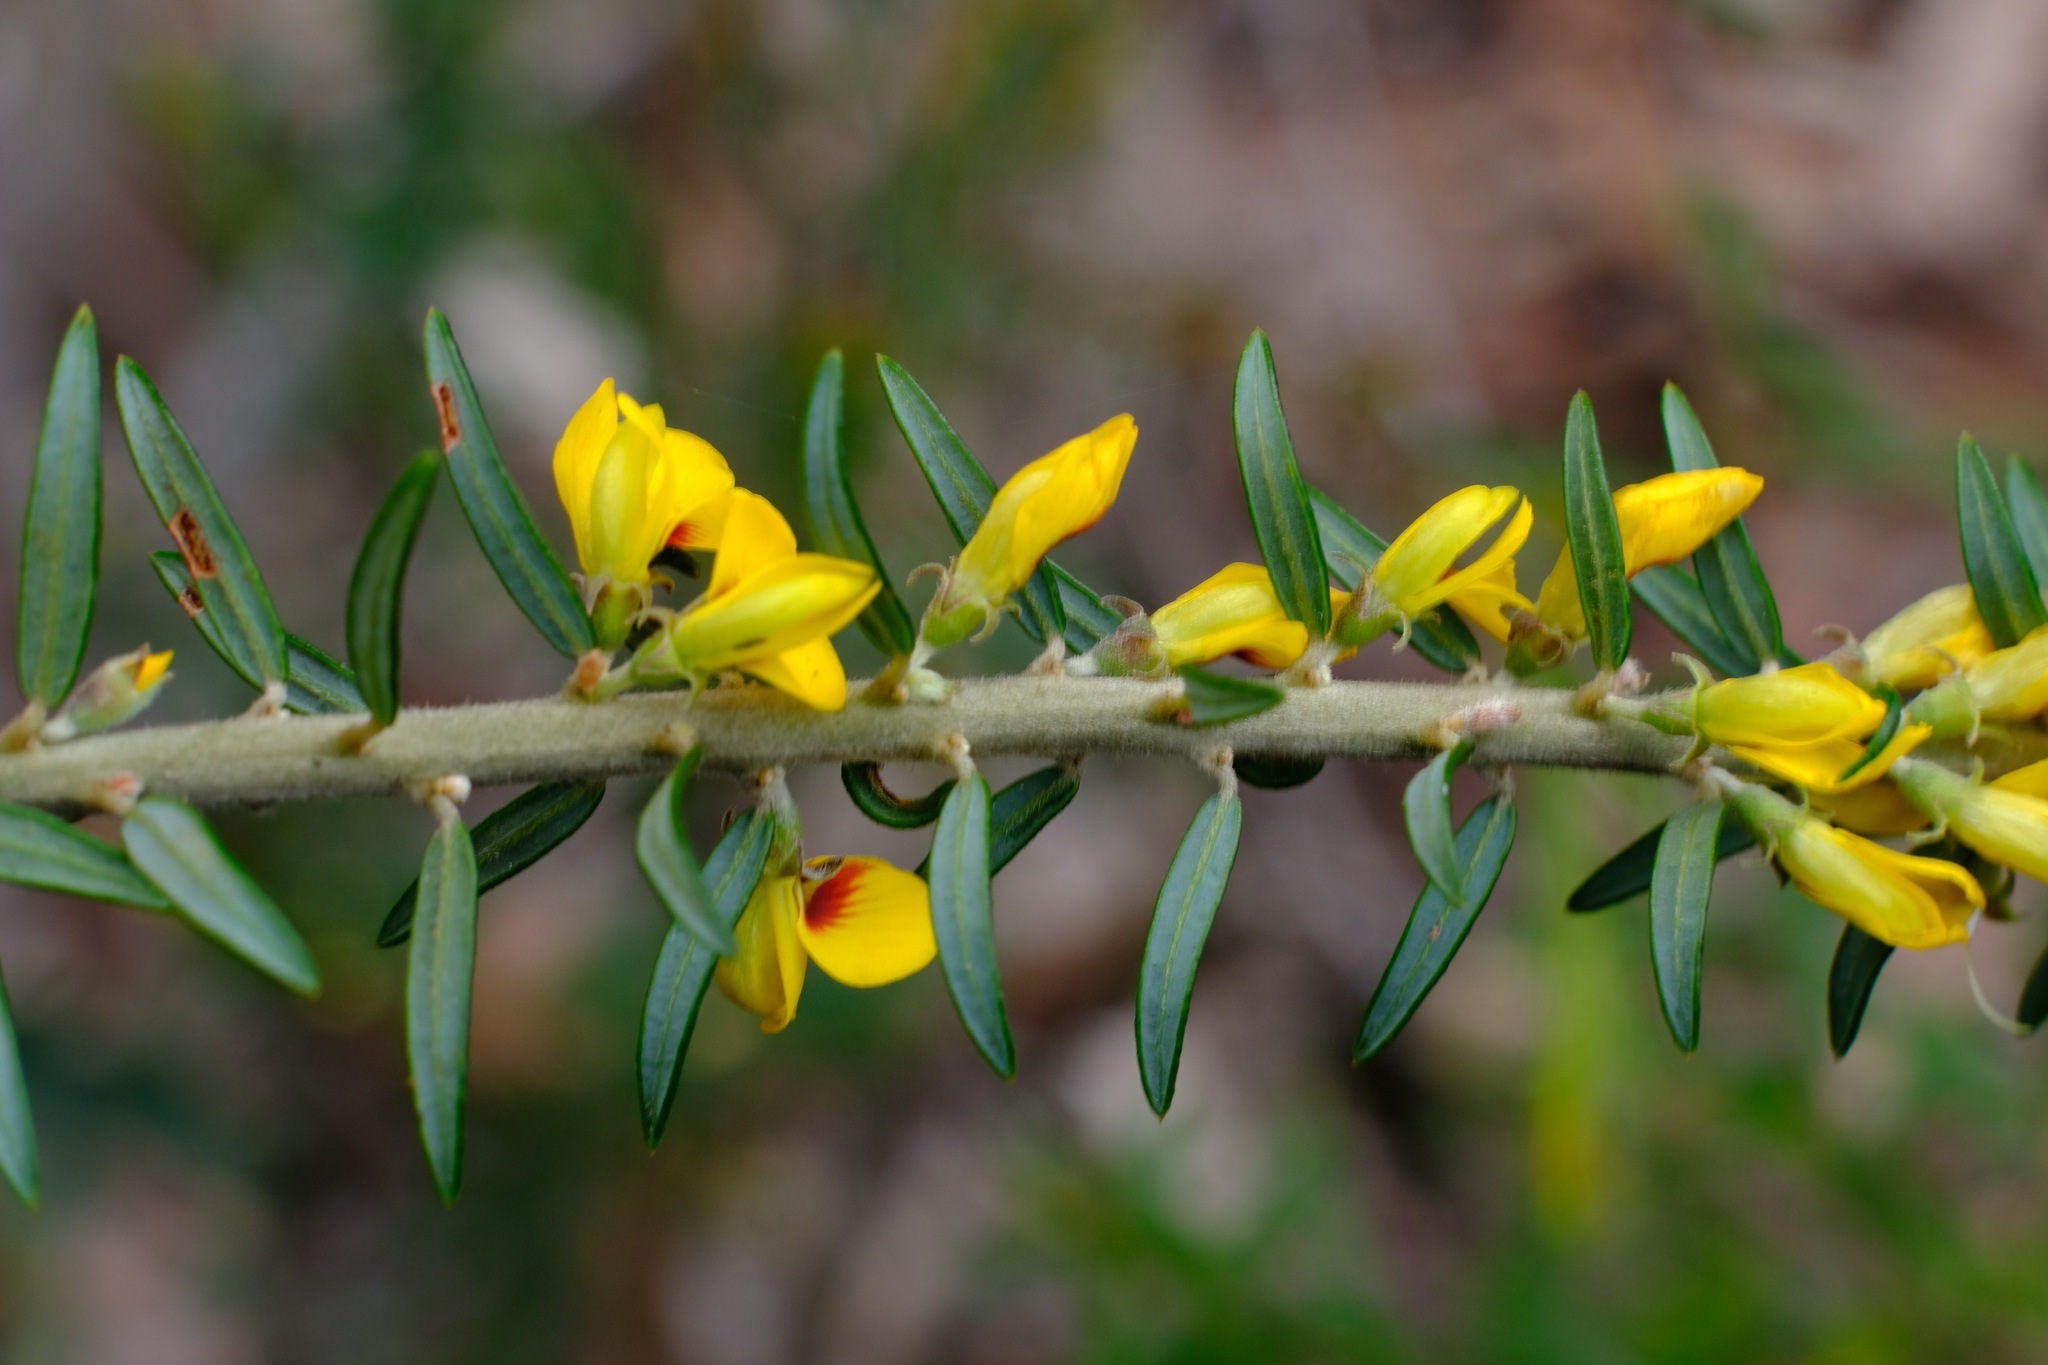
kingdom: Plantae
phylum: Tracheophyta
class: Magnoliopsida
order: Fabales
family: Fabaceae
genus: Aotus
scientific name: Aotus ericoides
